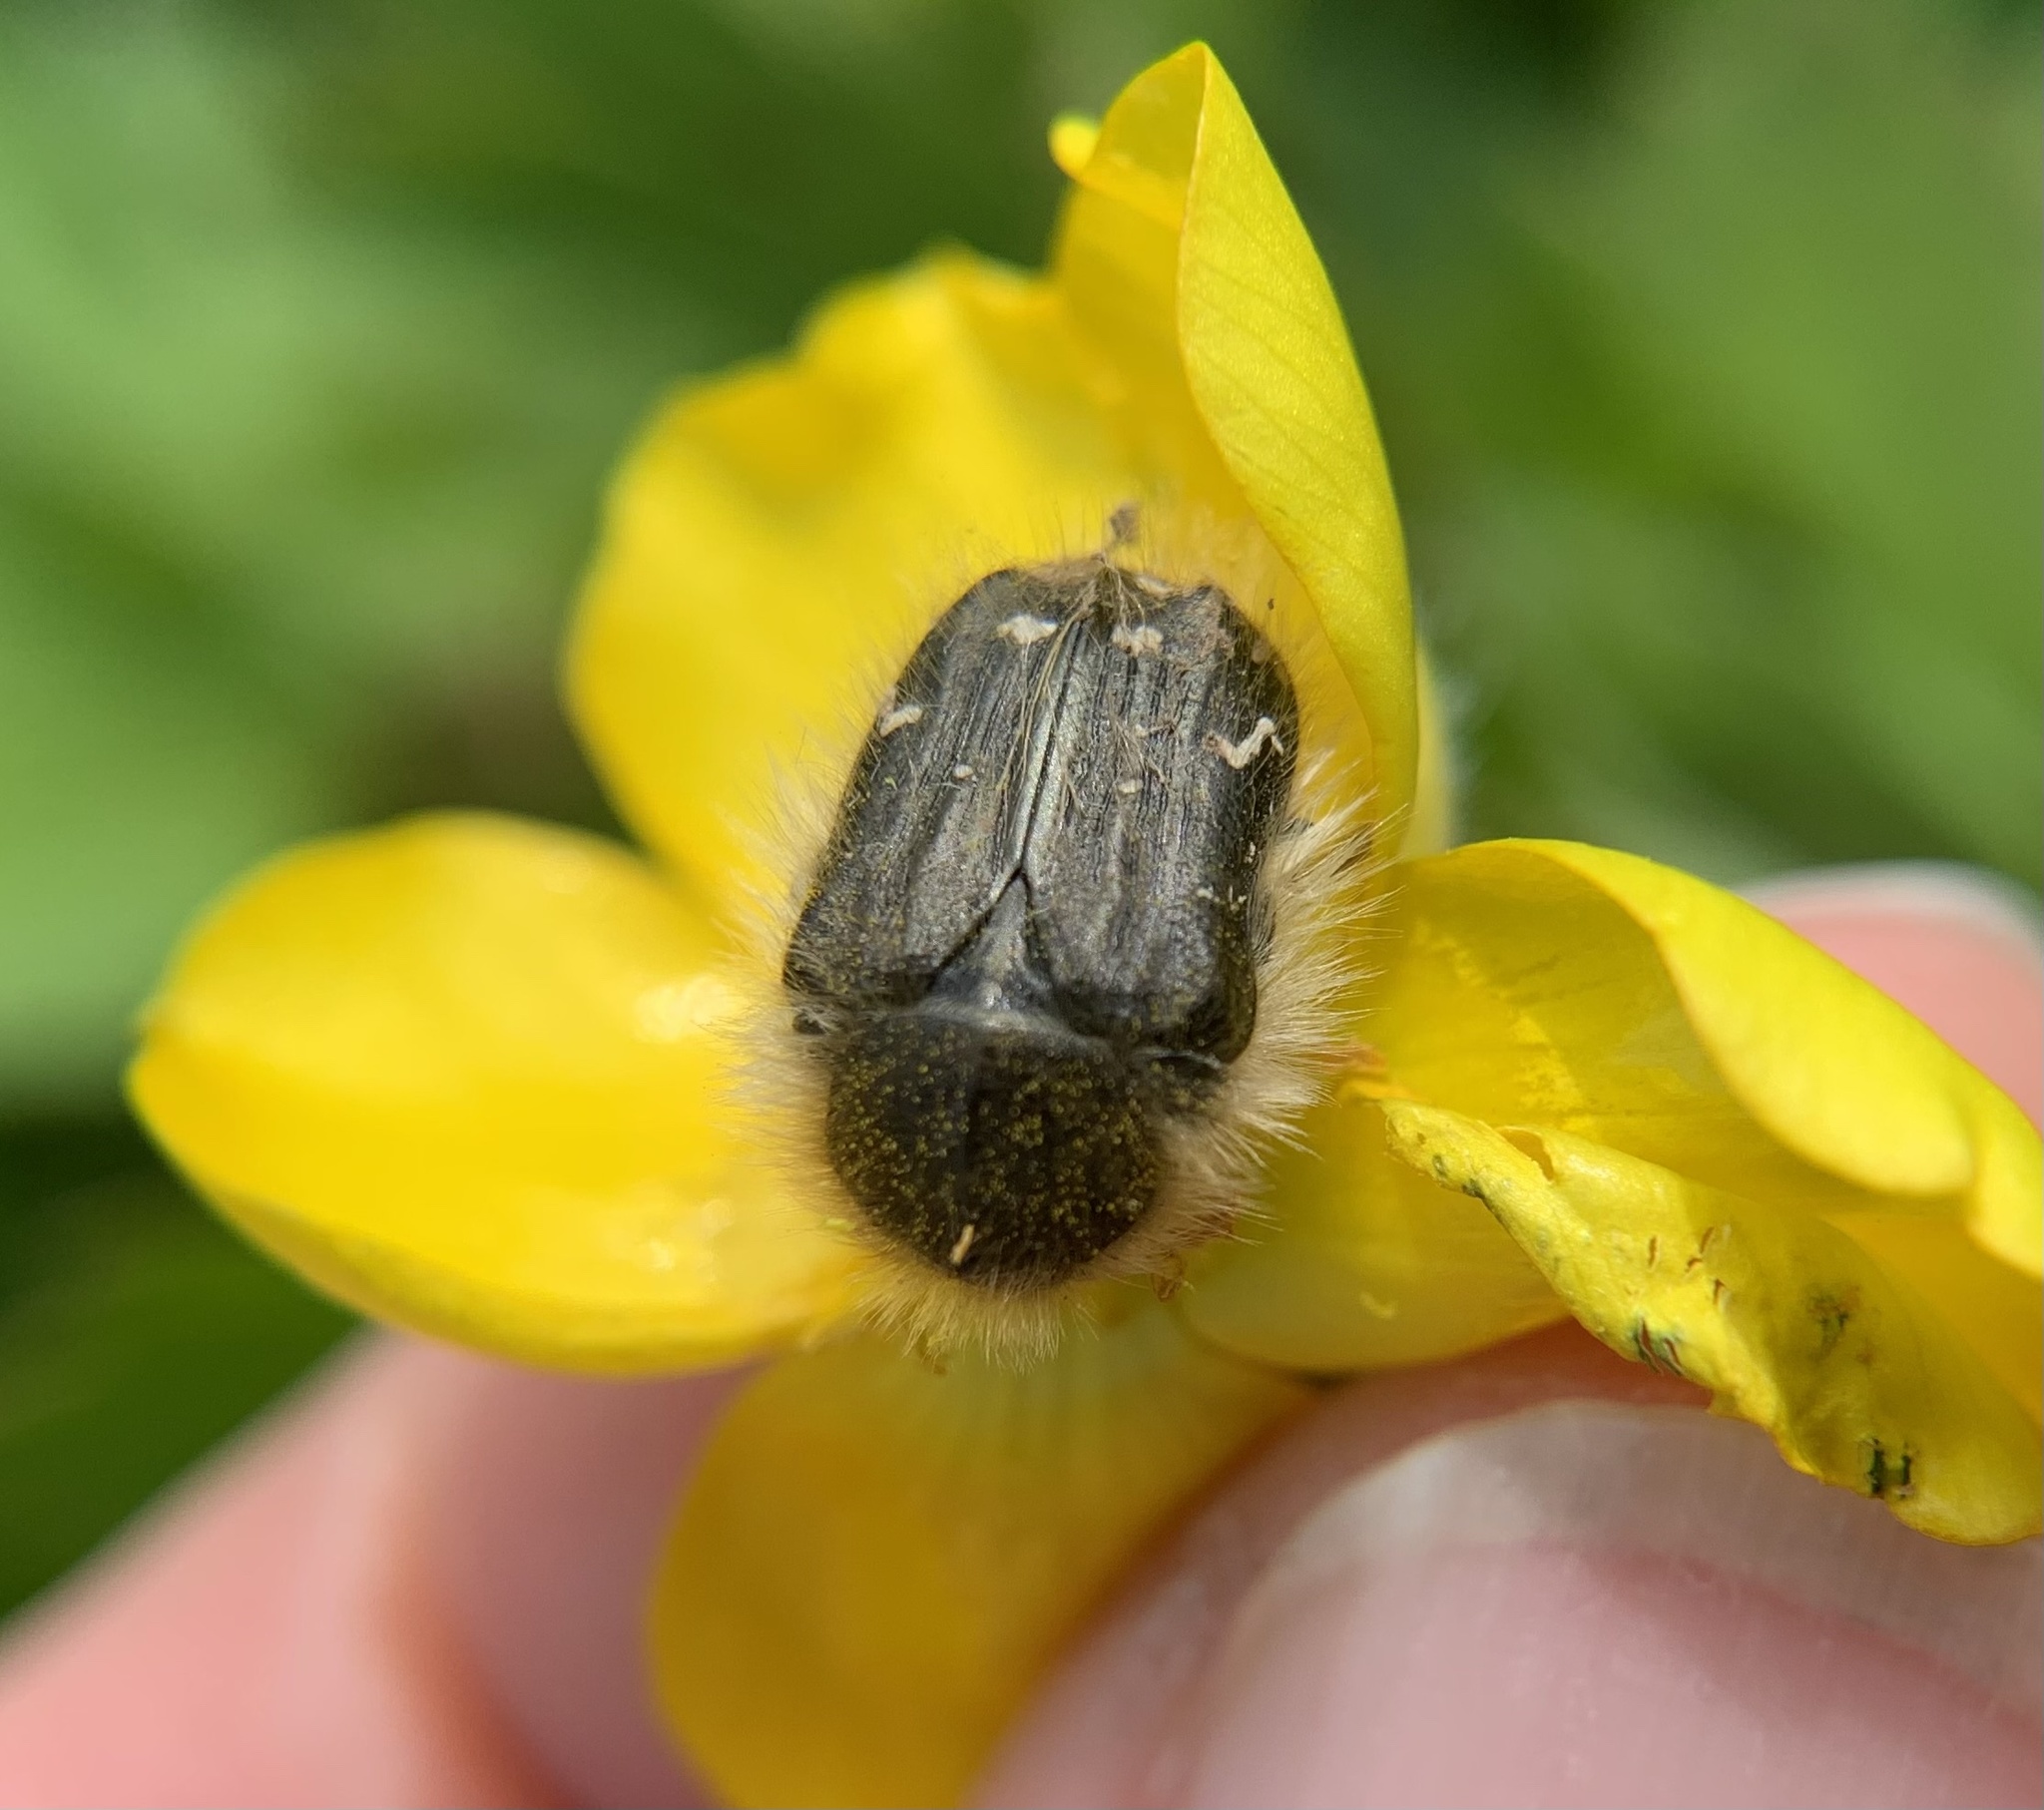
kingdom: Animalia
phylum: Arthropoda
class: Insecta
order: Coleoptera
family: Scarabaeidae
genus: Tropinota
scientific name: Tropinota hirta
